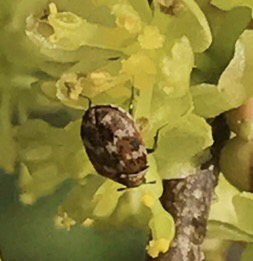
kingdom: Animalia
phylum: Arthropoda
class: Insecta
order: Coleoptera
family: Dermestidae
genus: Anthrenus
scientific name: Anthrenus verbasci
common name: Varied carpet beetle
